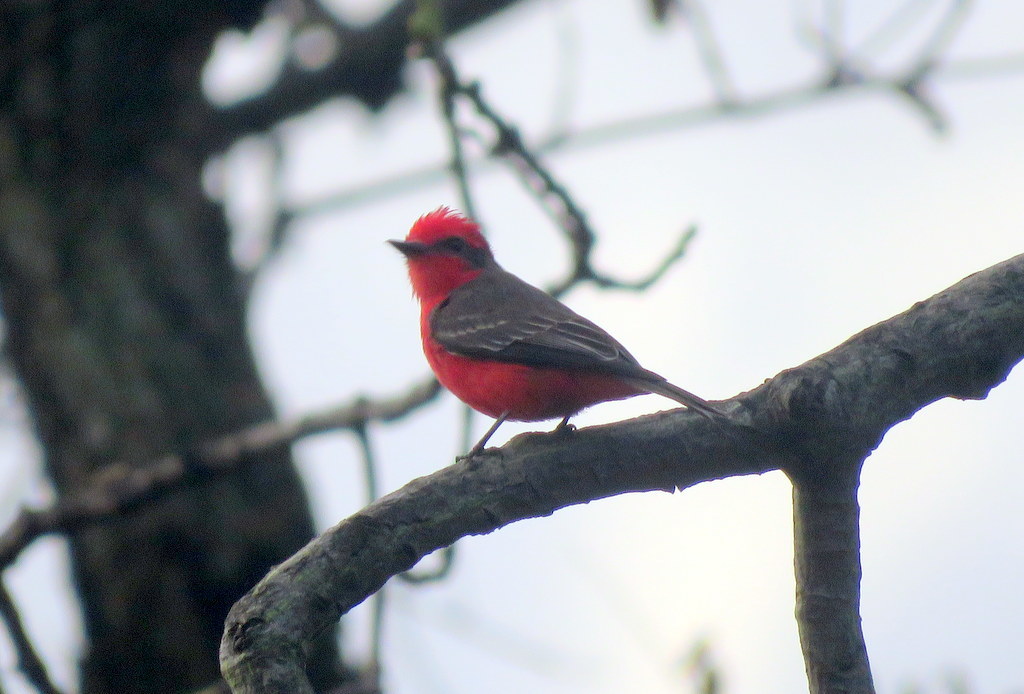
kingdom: Animalia
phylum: Chordata
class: Aves
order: Passeriformes
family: Tyrannidae
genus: Pyrocephalus
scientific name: Pyrocephalus rubinus
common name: Vermilion flycatcher
